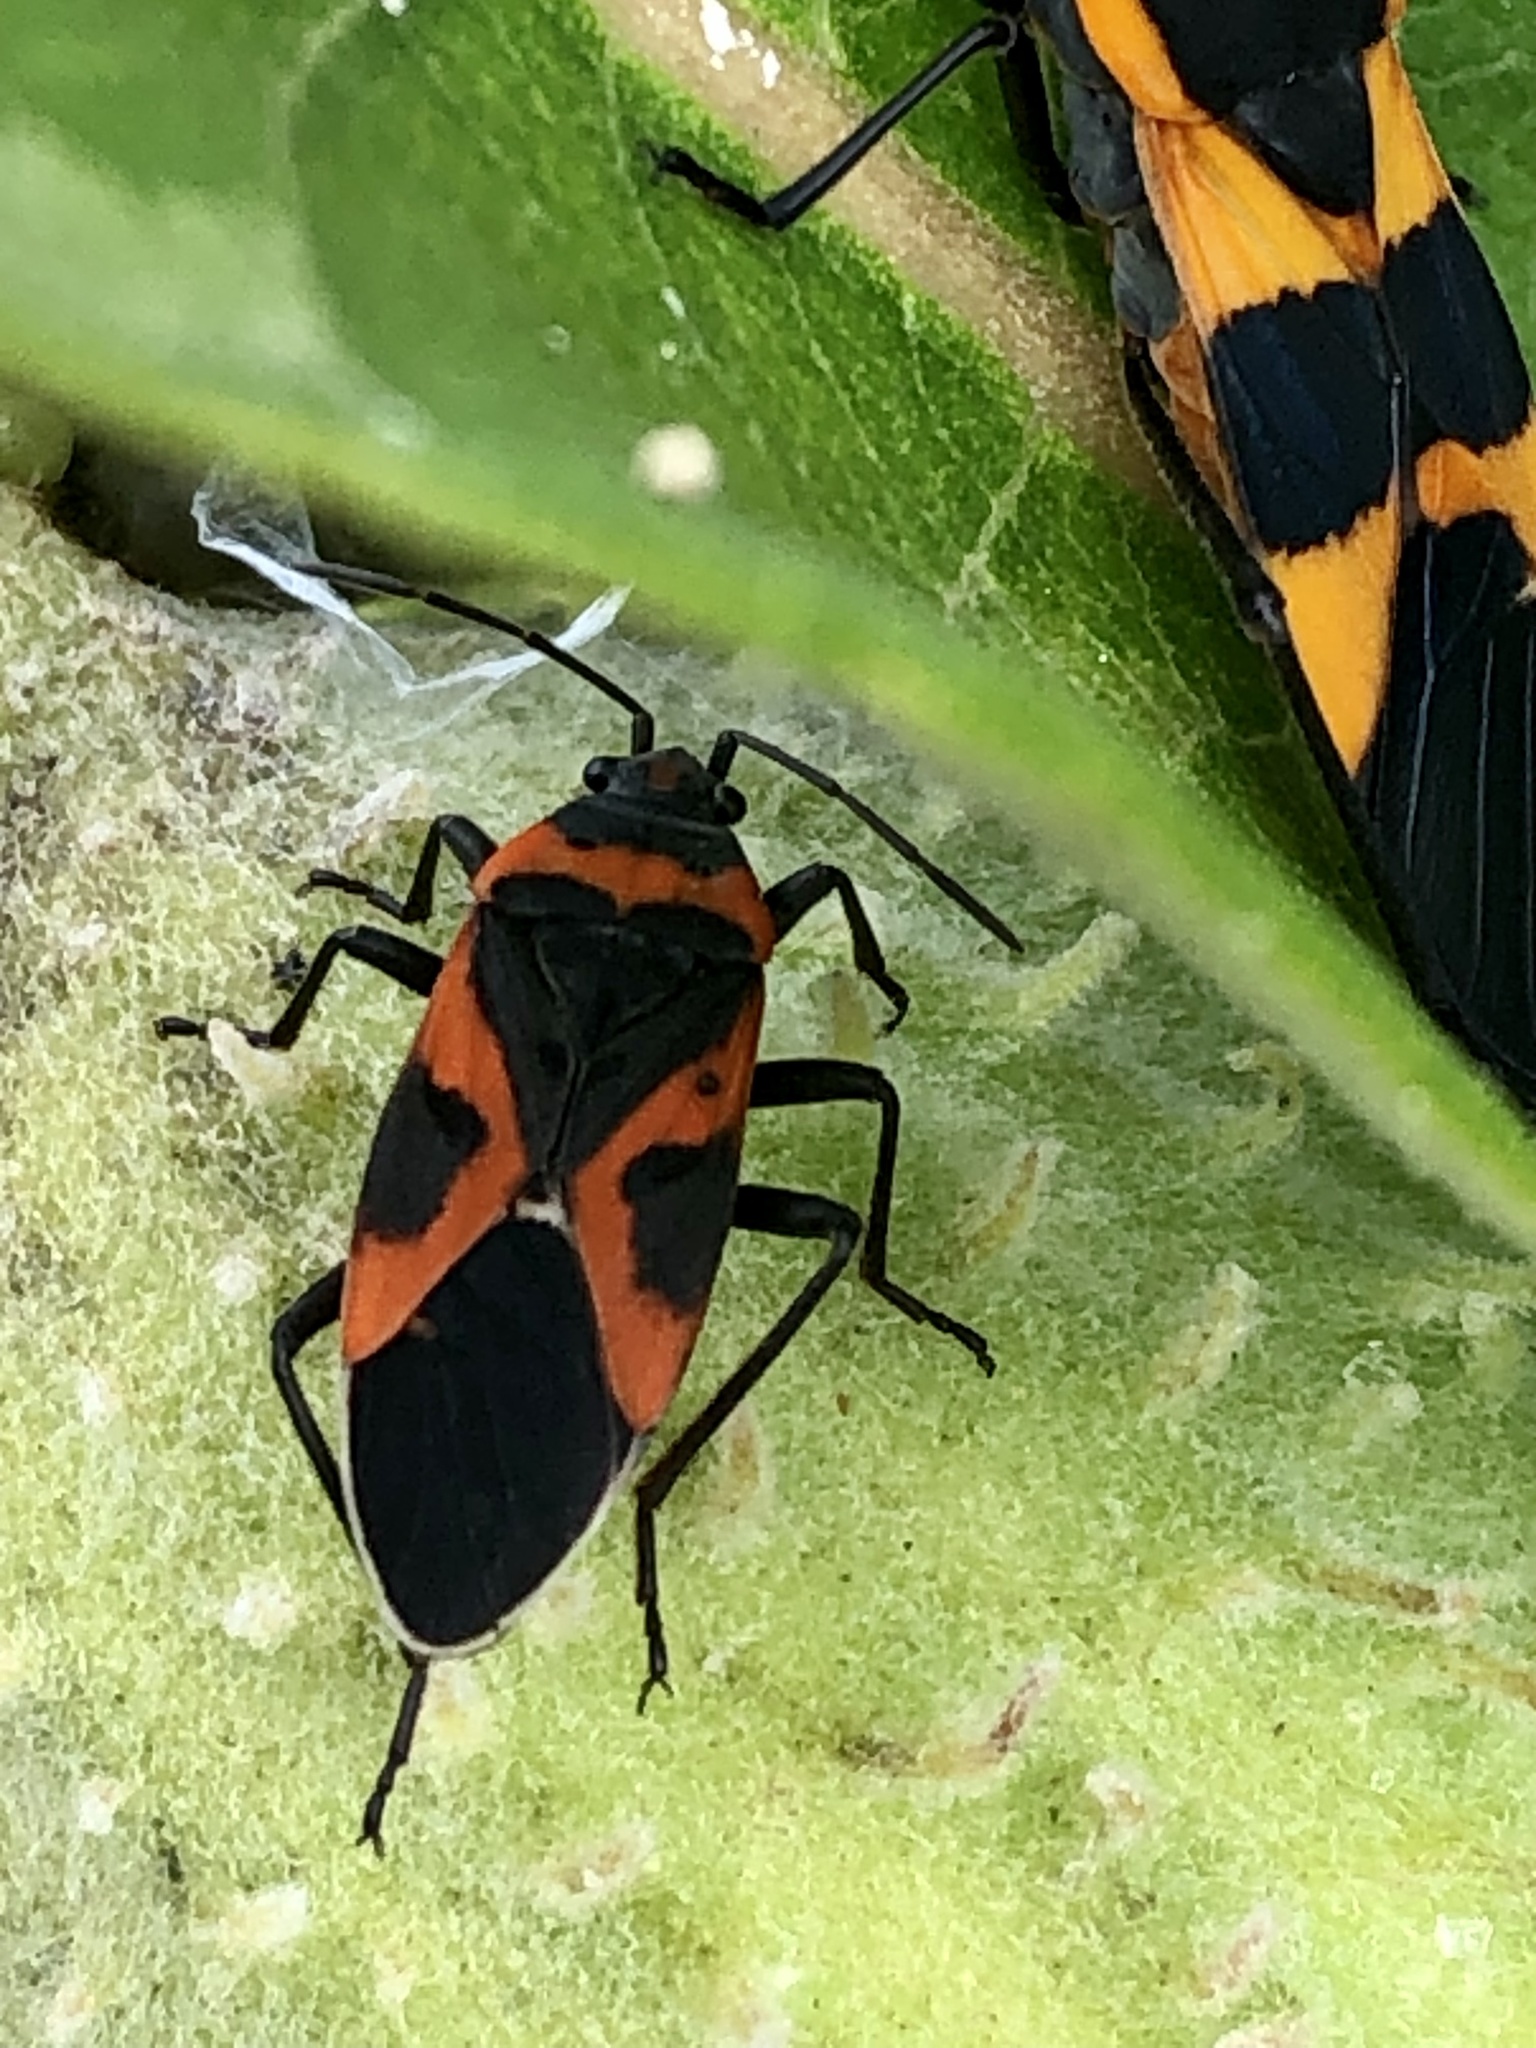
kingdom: Animalia
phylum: Arthropoda
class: Insecta
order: Hemiptera
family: Lygaeidae
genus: Lygaeus
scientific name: Lygaeus kalmii
